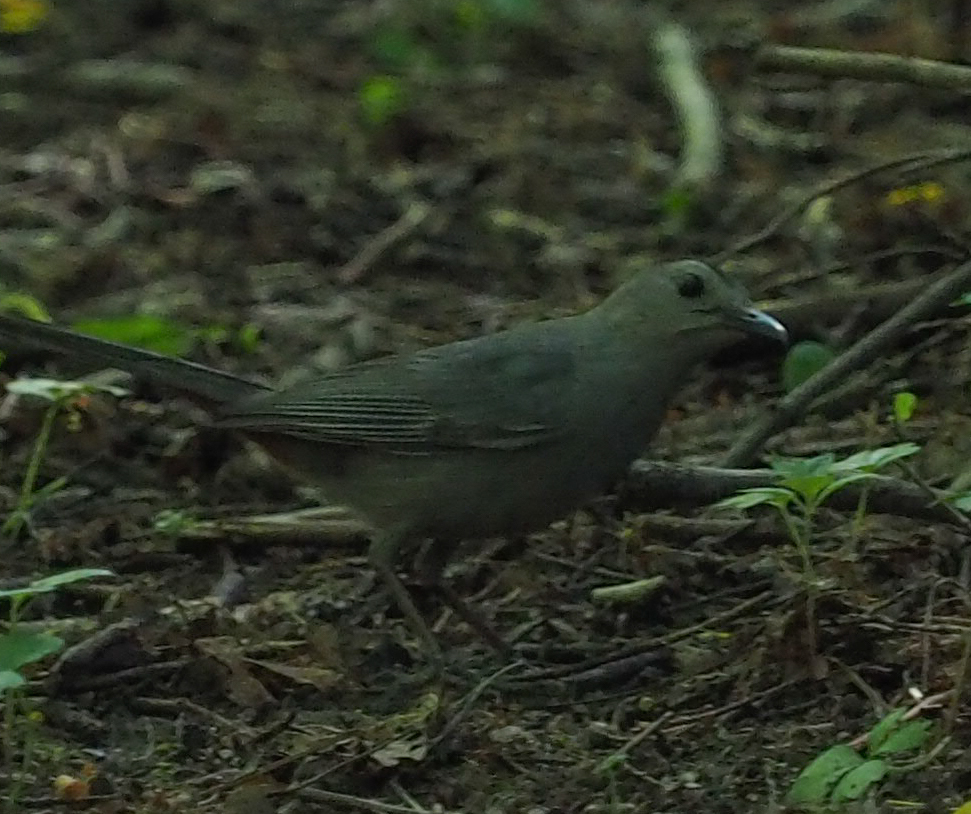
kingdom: Animalia
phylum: Chordata
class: Aves
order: Passeriformes
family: Mimidae
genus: Dumetella
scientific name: Dumetella carolinensis
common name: Gray catbird
